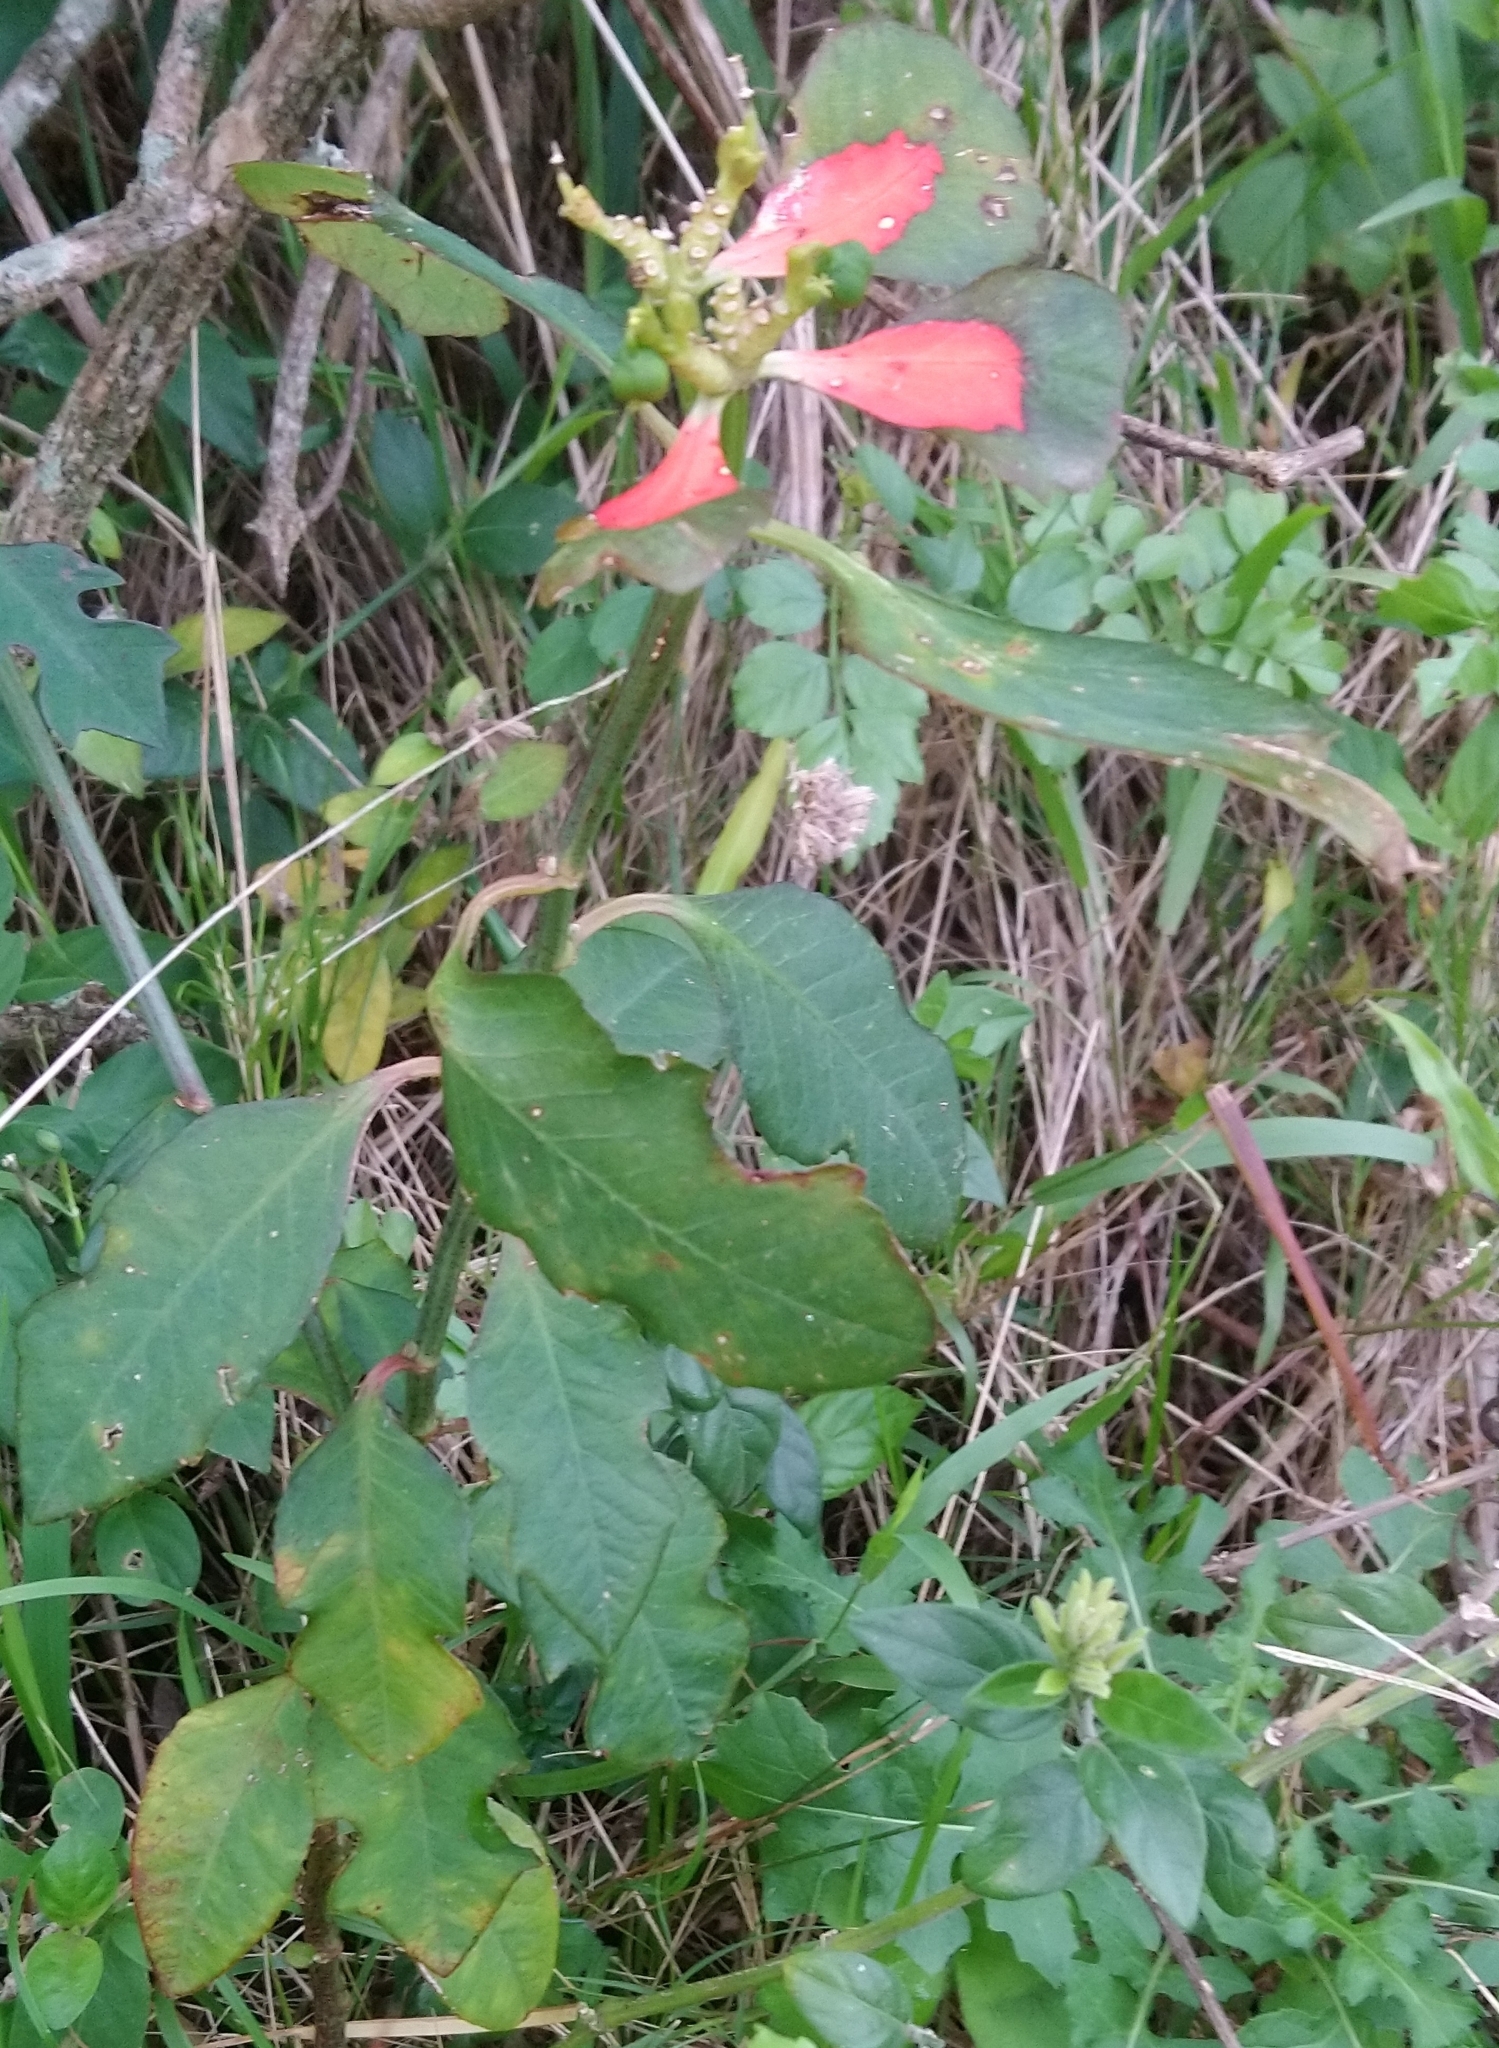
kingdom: Plantae
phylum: Tracheophyta
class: Magnoliopsida
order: Malpighiales
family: Euphorbiaceae
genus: Euphorbia
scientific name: Euphorbia heterophylla
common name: Mexican fireplant
